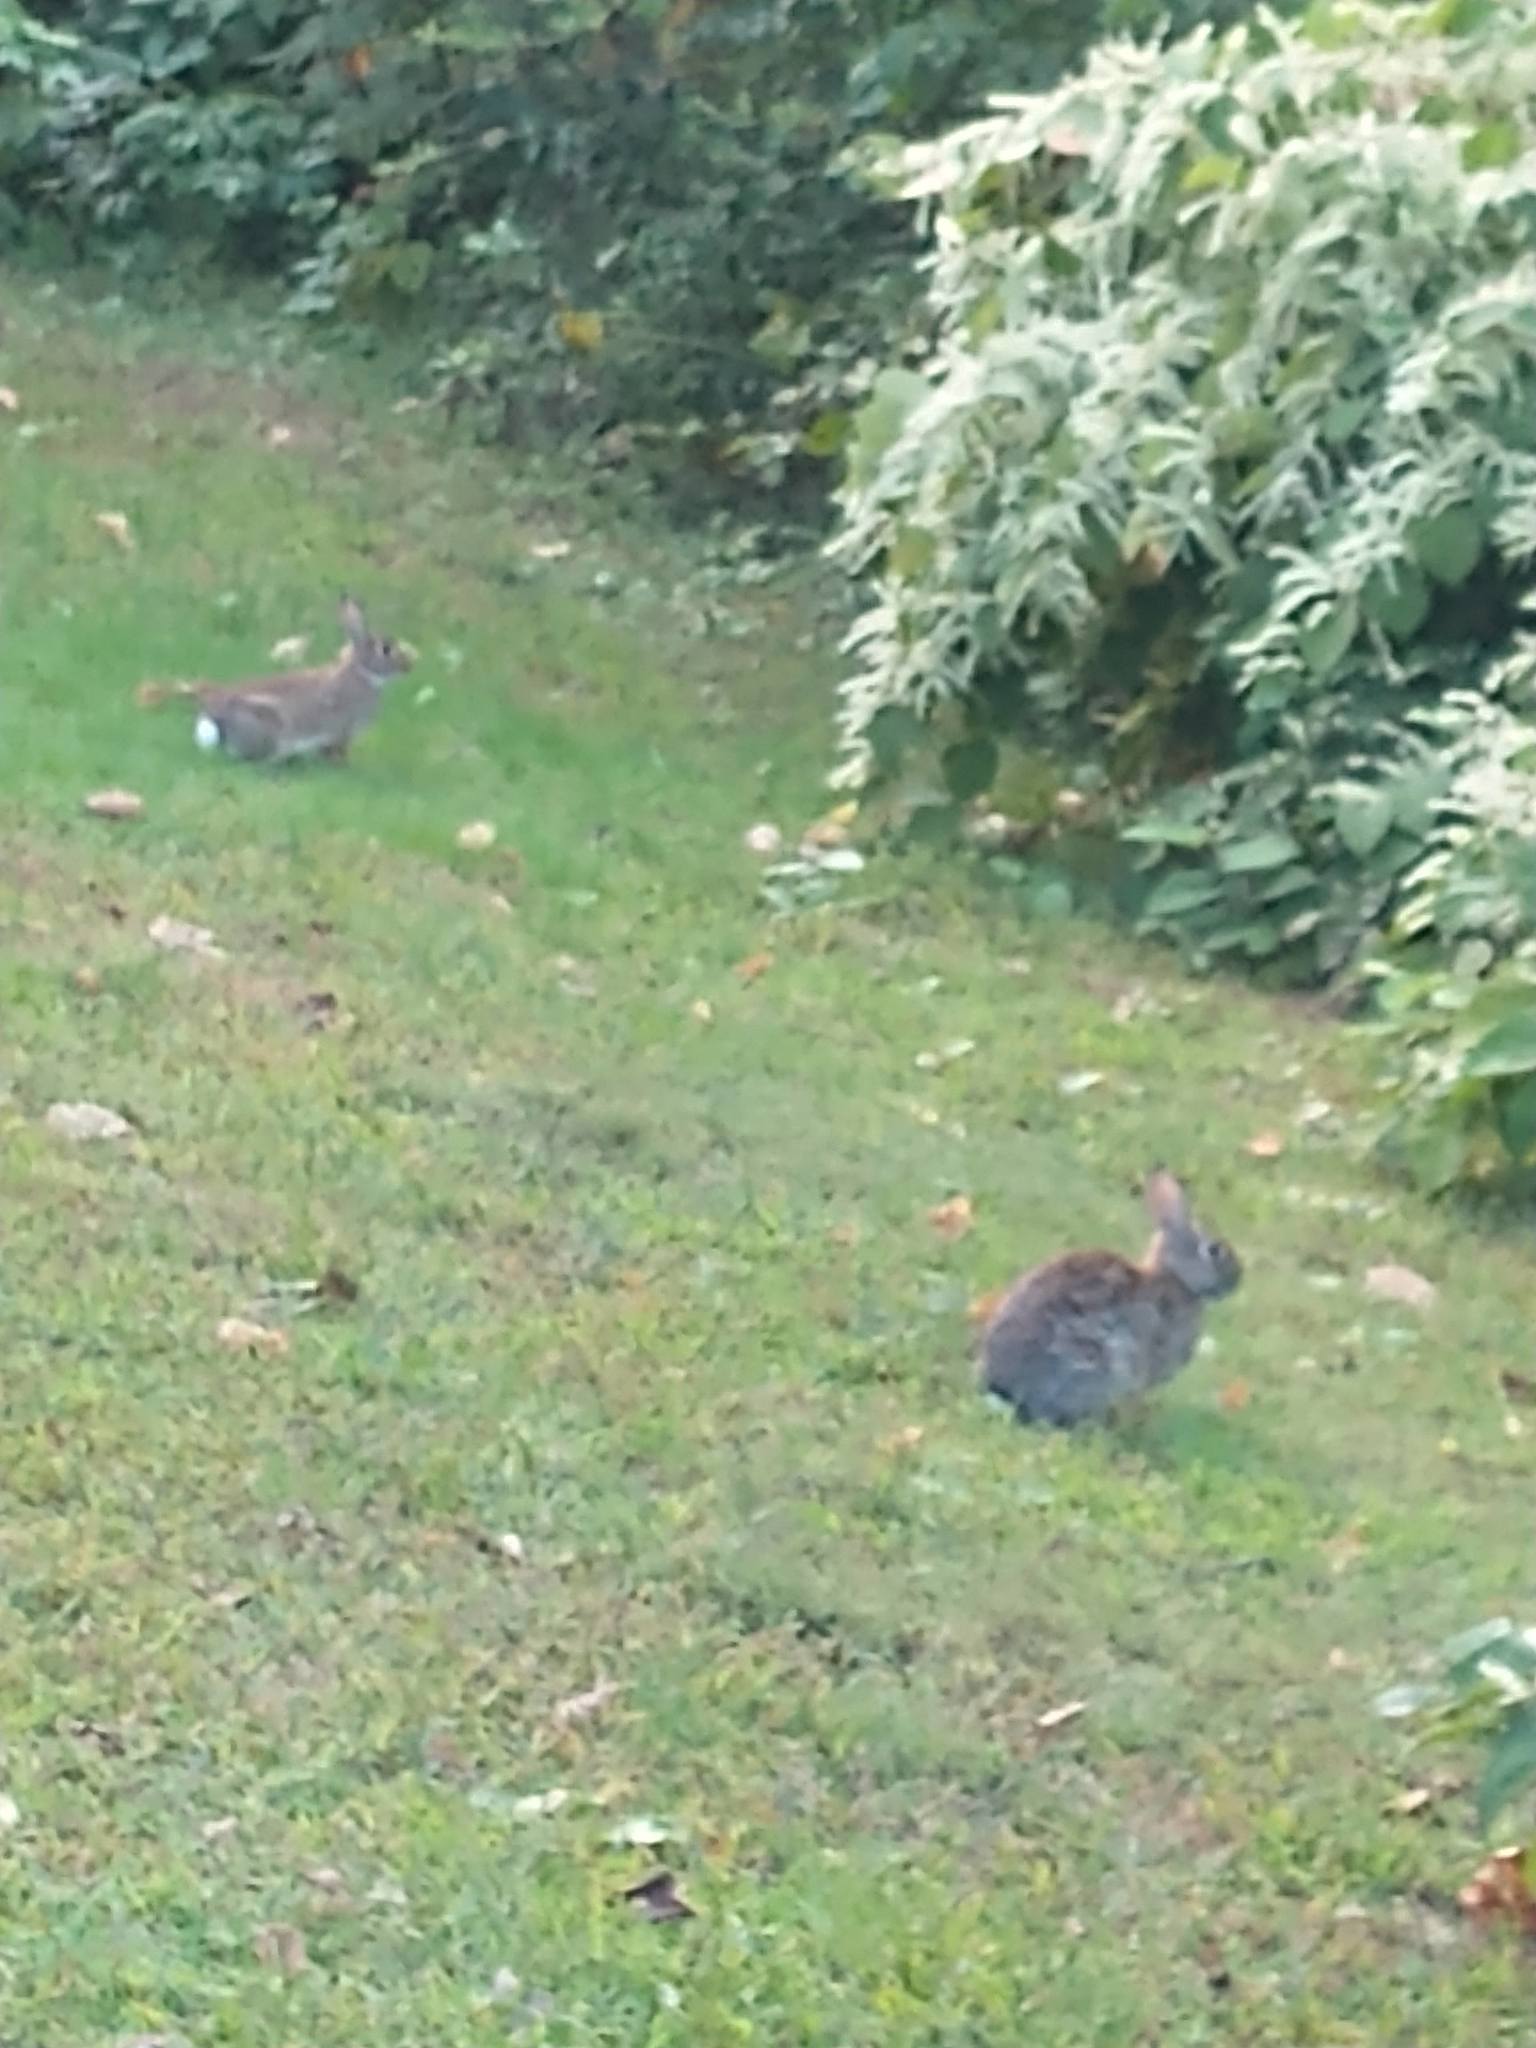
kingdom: Animalia
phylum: Chordata
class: Mammalia
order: Lagomorpha
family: Leporidae
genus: Sylvilagus
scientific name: Sylvilagus floridanus
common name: Eastern cottontail
